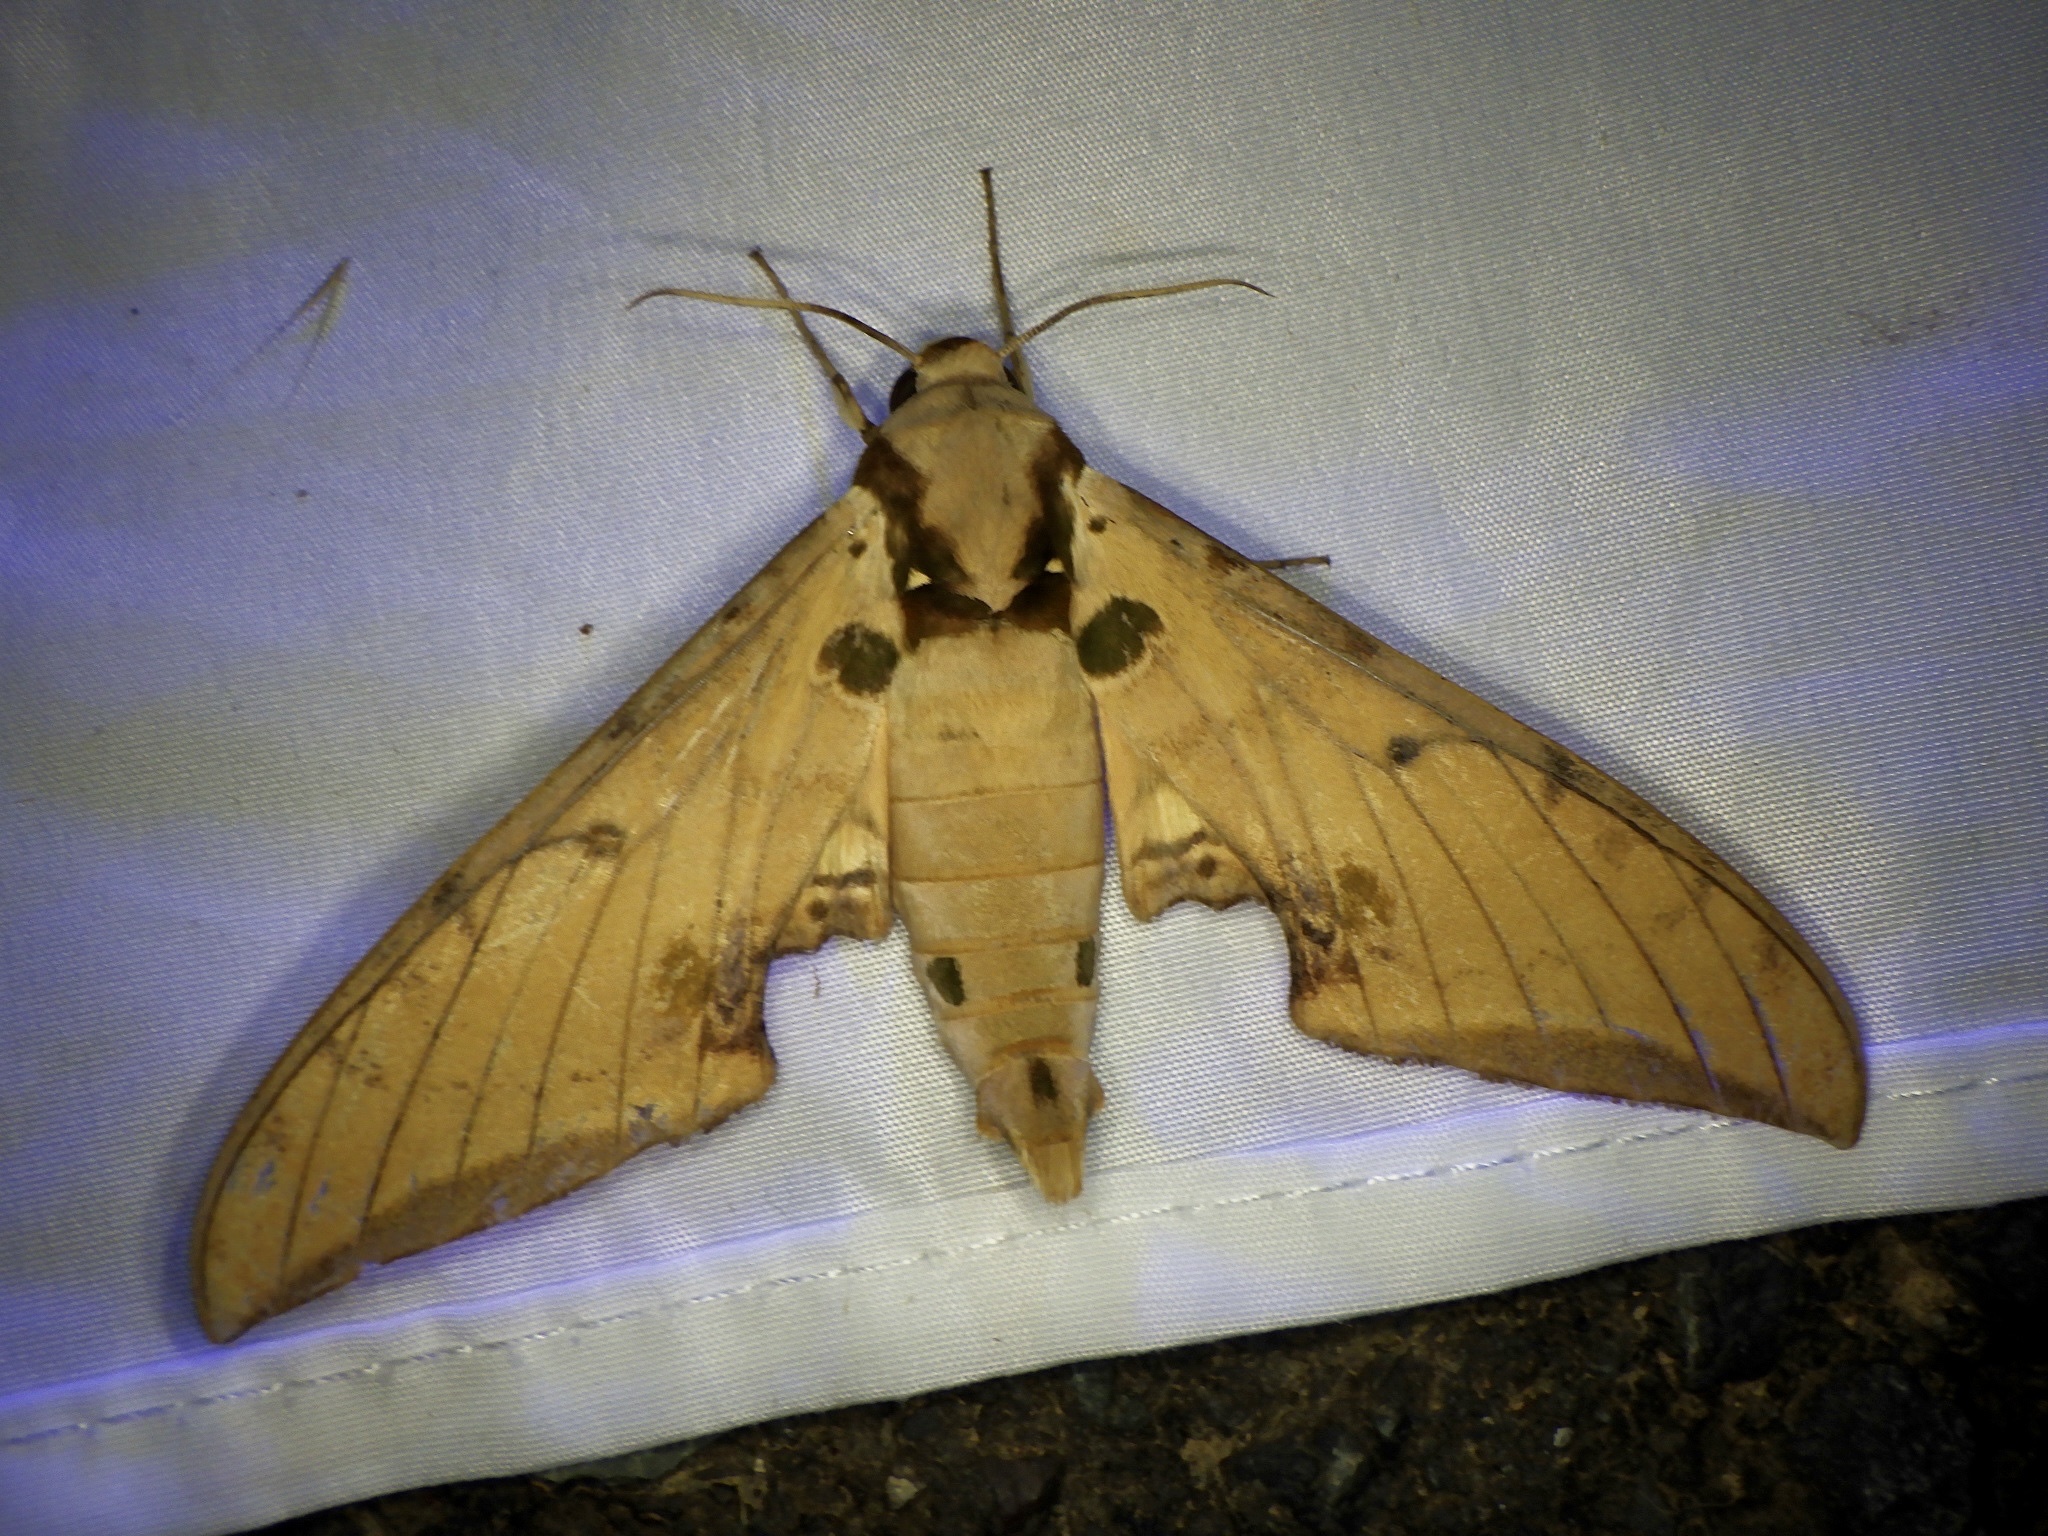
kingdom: Animalia
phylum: Arthropoda
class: Insecta
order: Lepidoptera
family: Sphingidae
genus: Ambulyx
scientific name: Ambulyx ochracea
